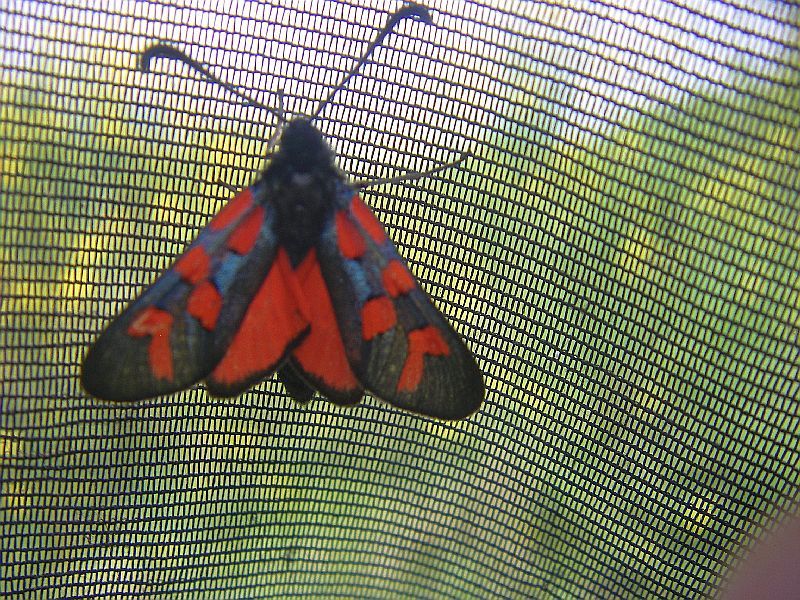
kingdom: Animalia
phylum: Arthropoda
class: Insecta
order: Lepidoptera
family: Zygaenidae
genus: Zygaena
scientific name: Zygaena oxytropis
